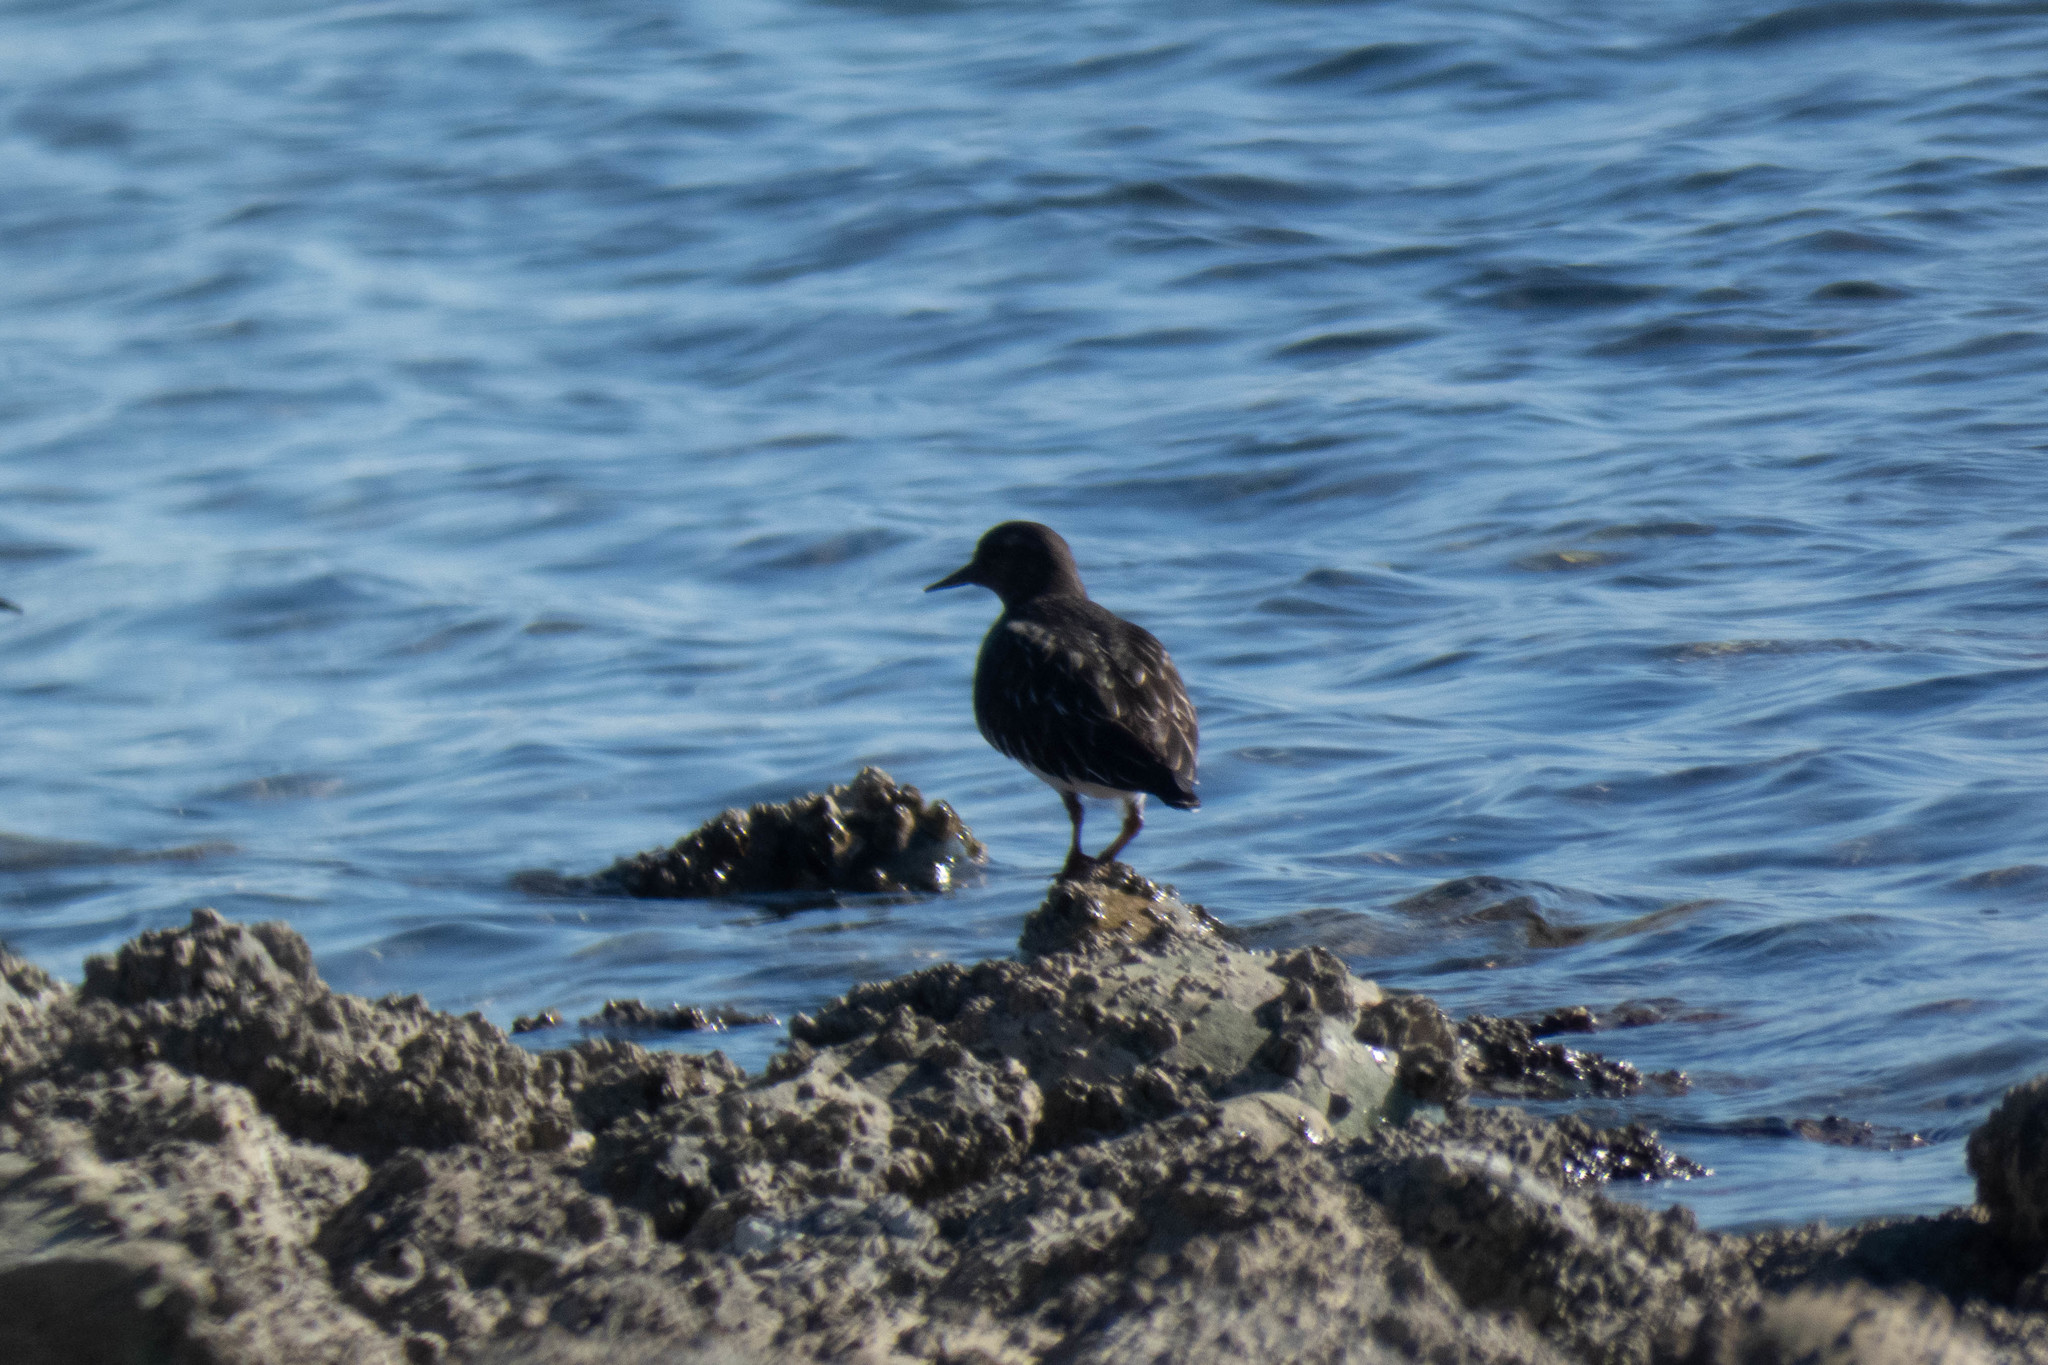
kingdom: Animalia
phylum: Chordata
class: Aves
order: Charadriiformes
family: Scolopacidae
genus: Arenaria
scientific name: Arenaria melanocephala
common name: Black turnstone
